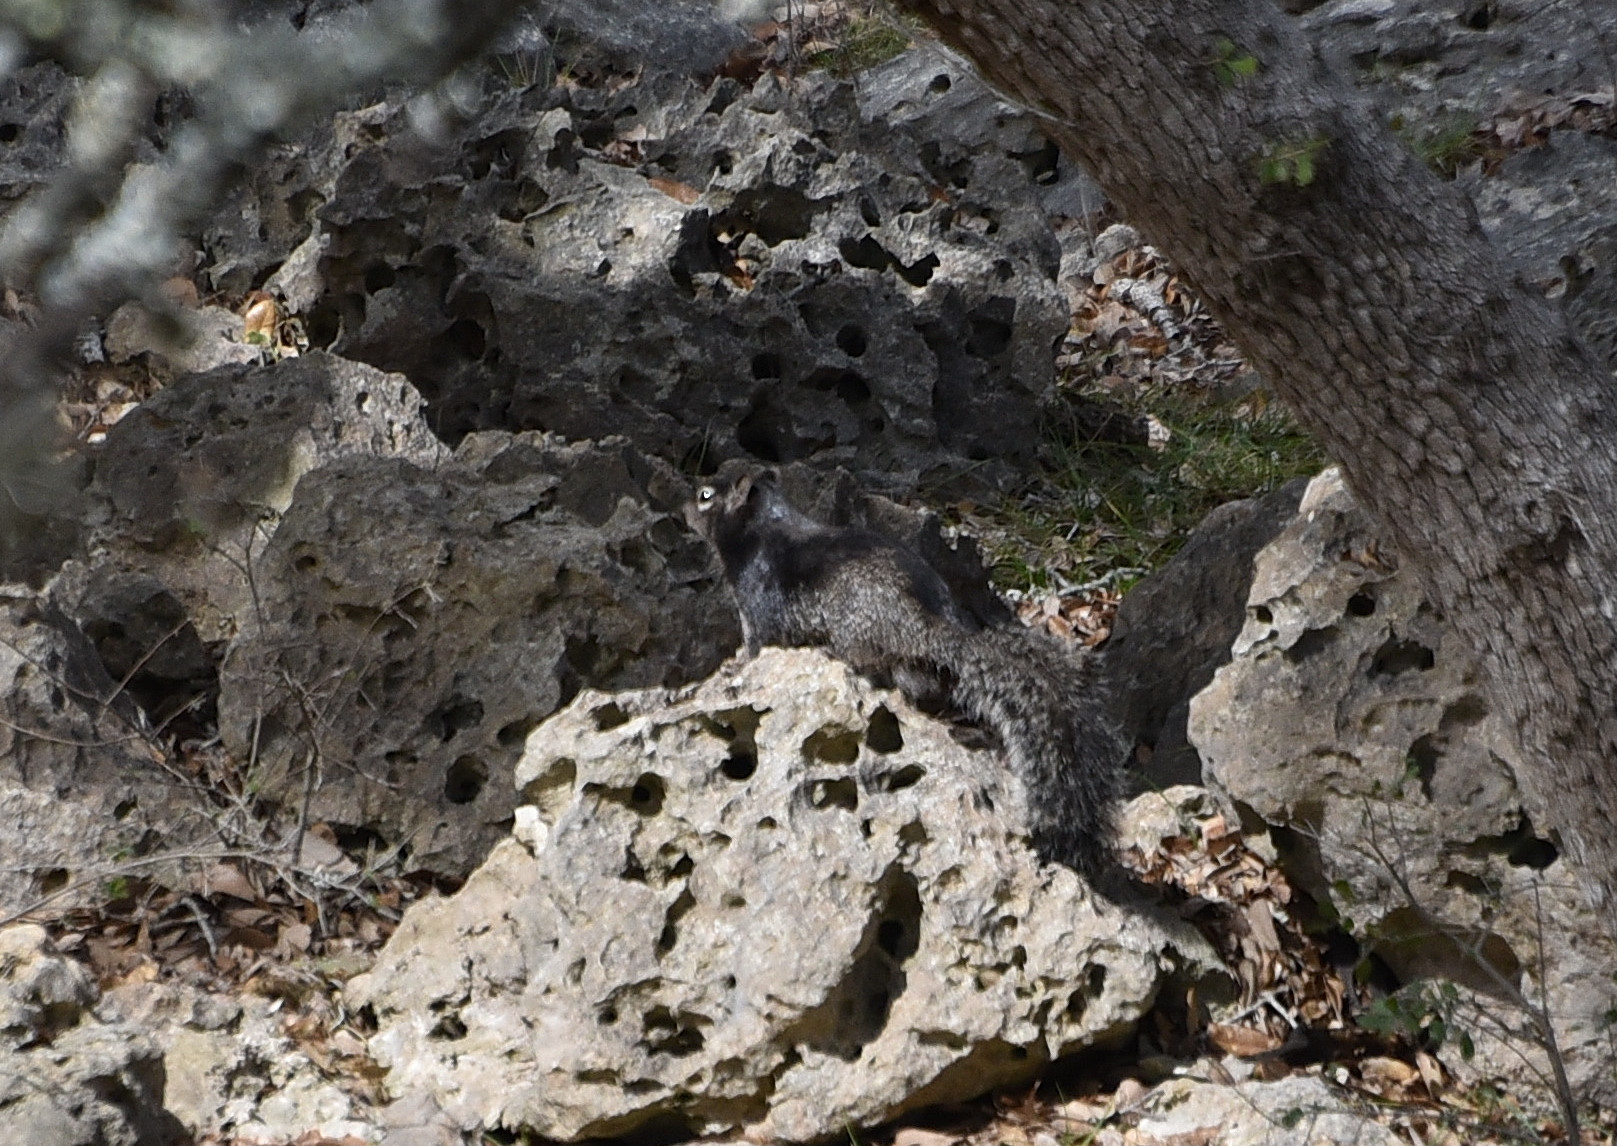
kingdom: Animalia
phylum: Chordata
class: Mammalia
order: Rodentia
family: Sciuridae
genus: Otospermophilus
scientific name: Otospermophilus variegatus
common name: Rock squirrel
